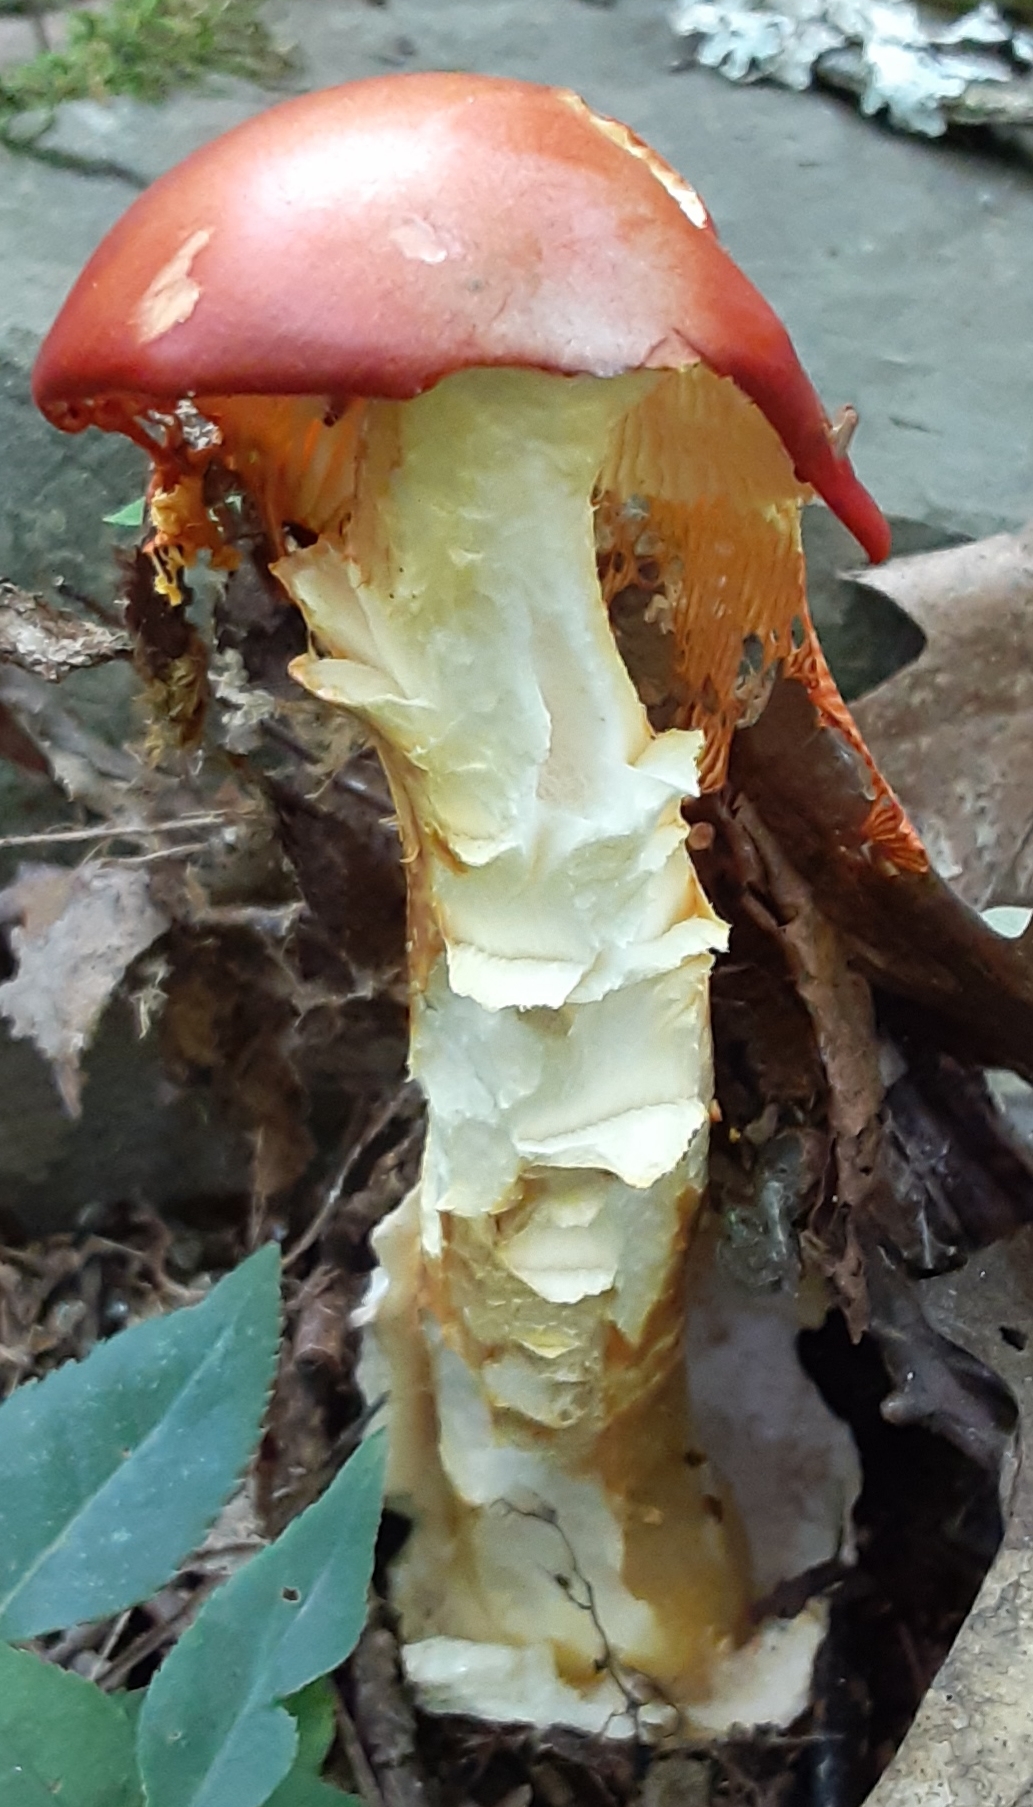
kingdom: Fungi
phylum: Basidiomycota
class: Agaricomycetes
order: Agaricales
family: Amanitaceae
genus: Amanita
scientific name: Amanita jacksonii
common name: Jackson's slender caesar
